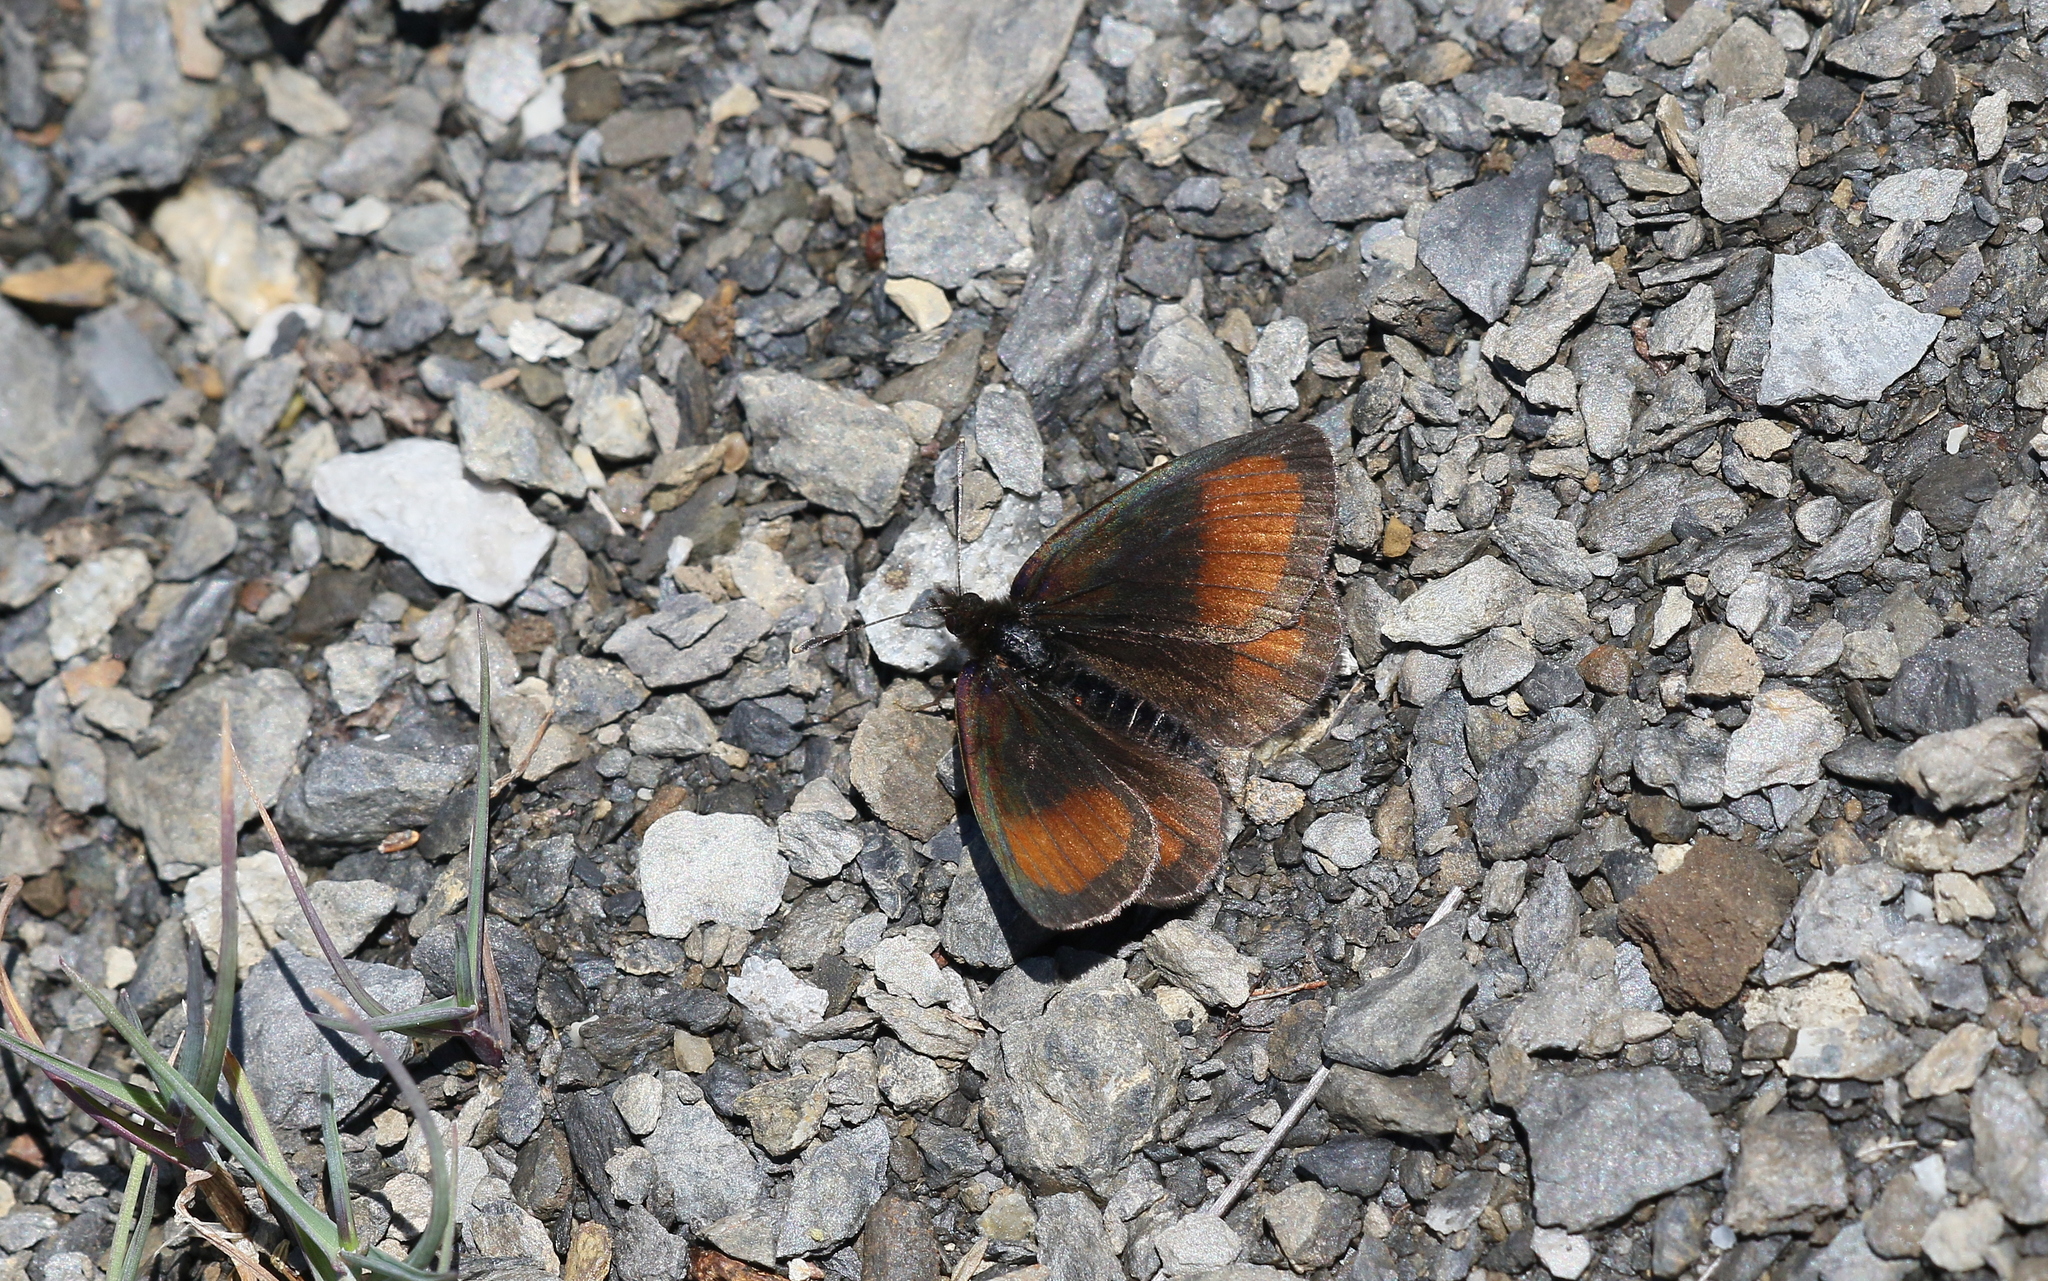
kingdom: Animalia
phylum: Arthropoda
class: Insecta
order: Lepidoptera
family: Nymphalidae
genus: Erebia
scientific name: Erebia gorge
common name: Silky ringlet
